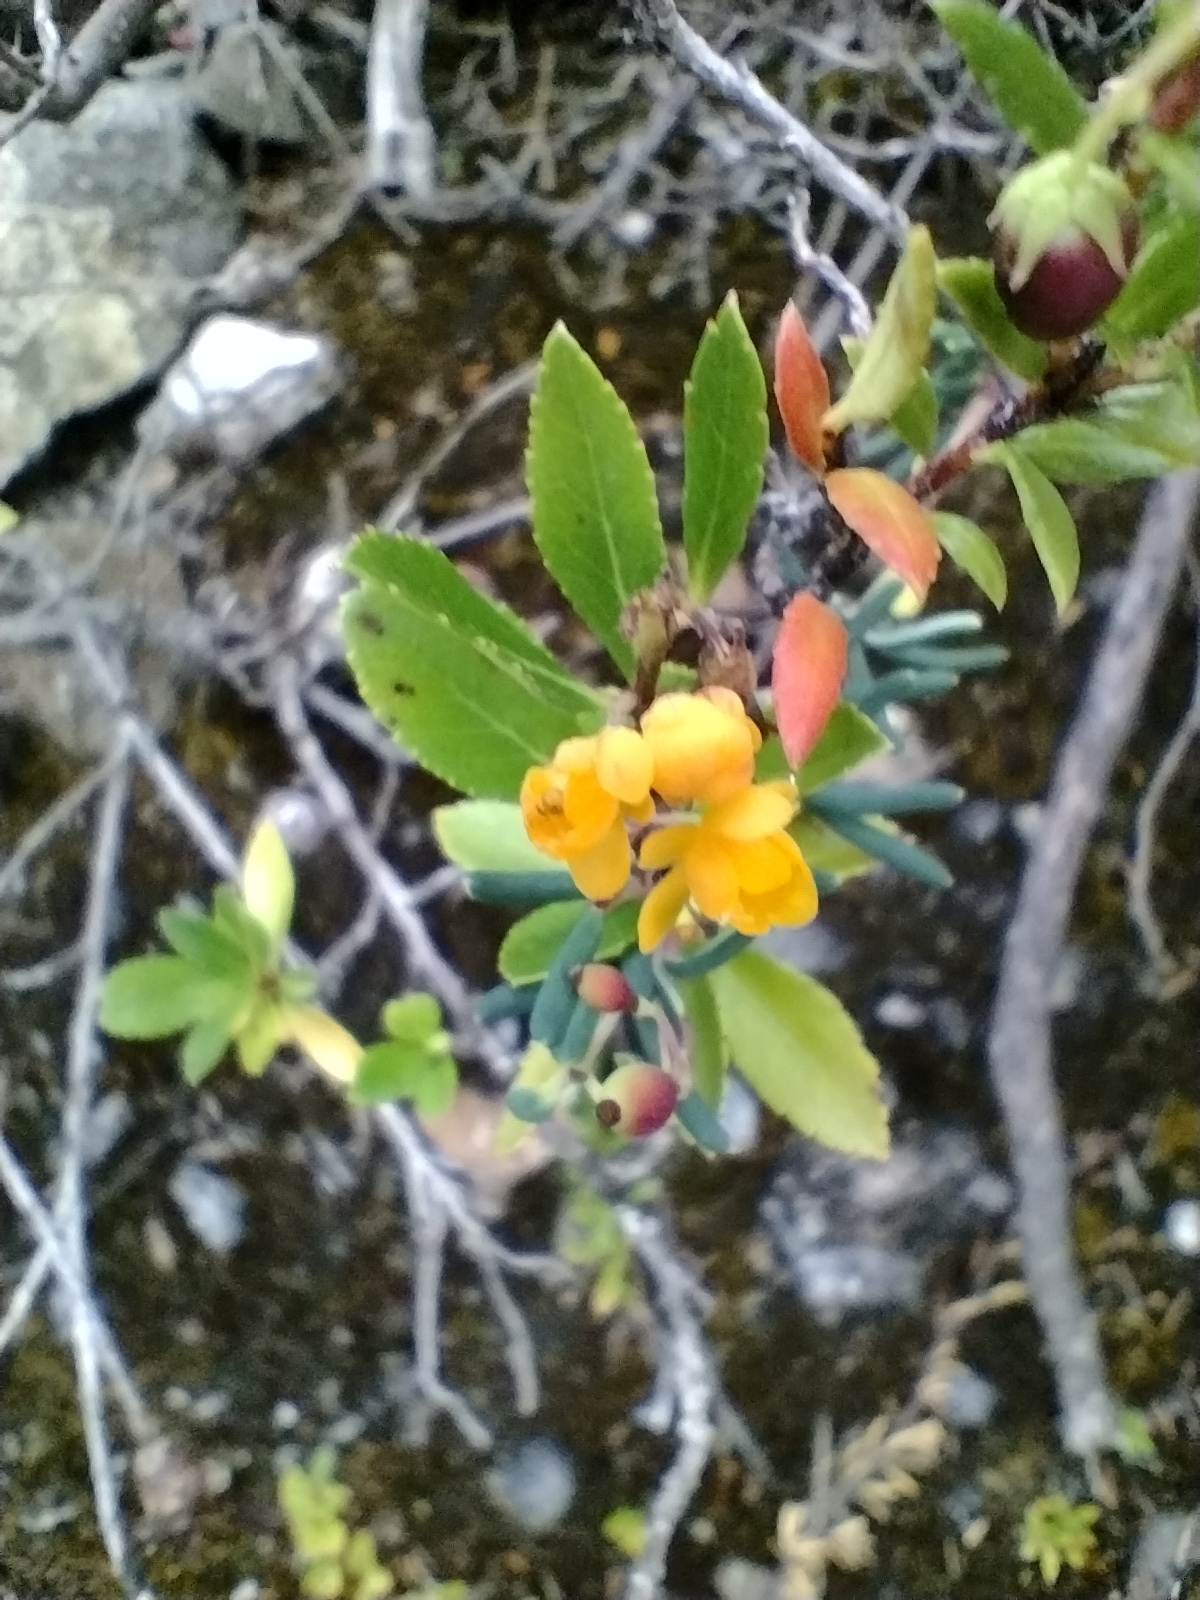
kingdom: Plantae
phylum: Tracheophyta
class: Magnoliopsida
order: Ranunculales
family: Berberidaceae
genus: Berberis
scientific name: Berberis microphylla
